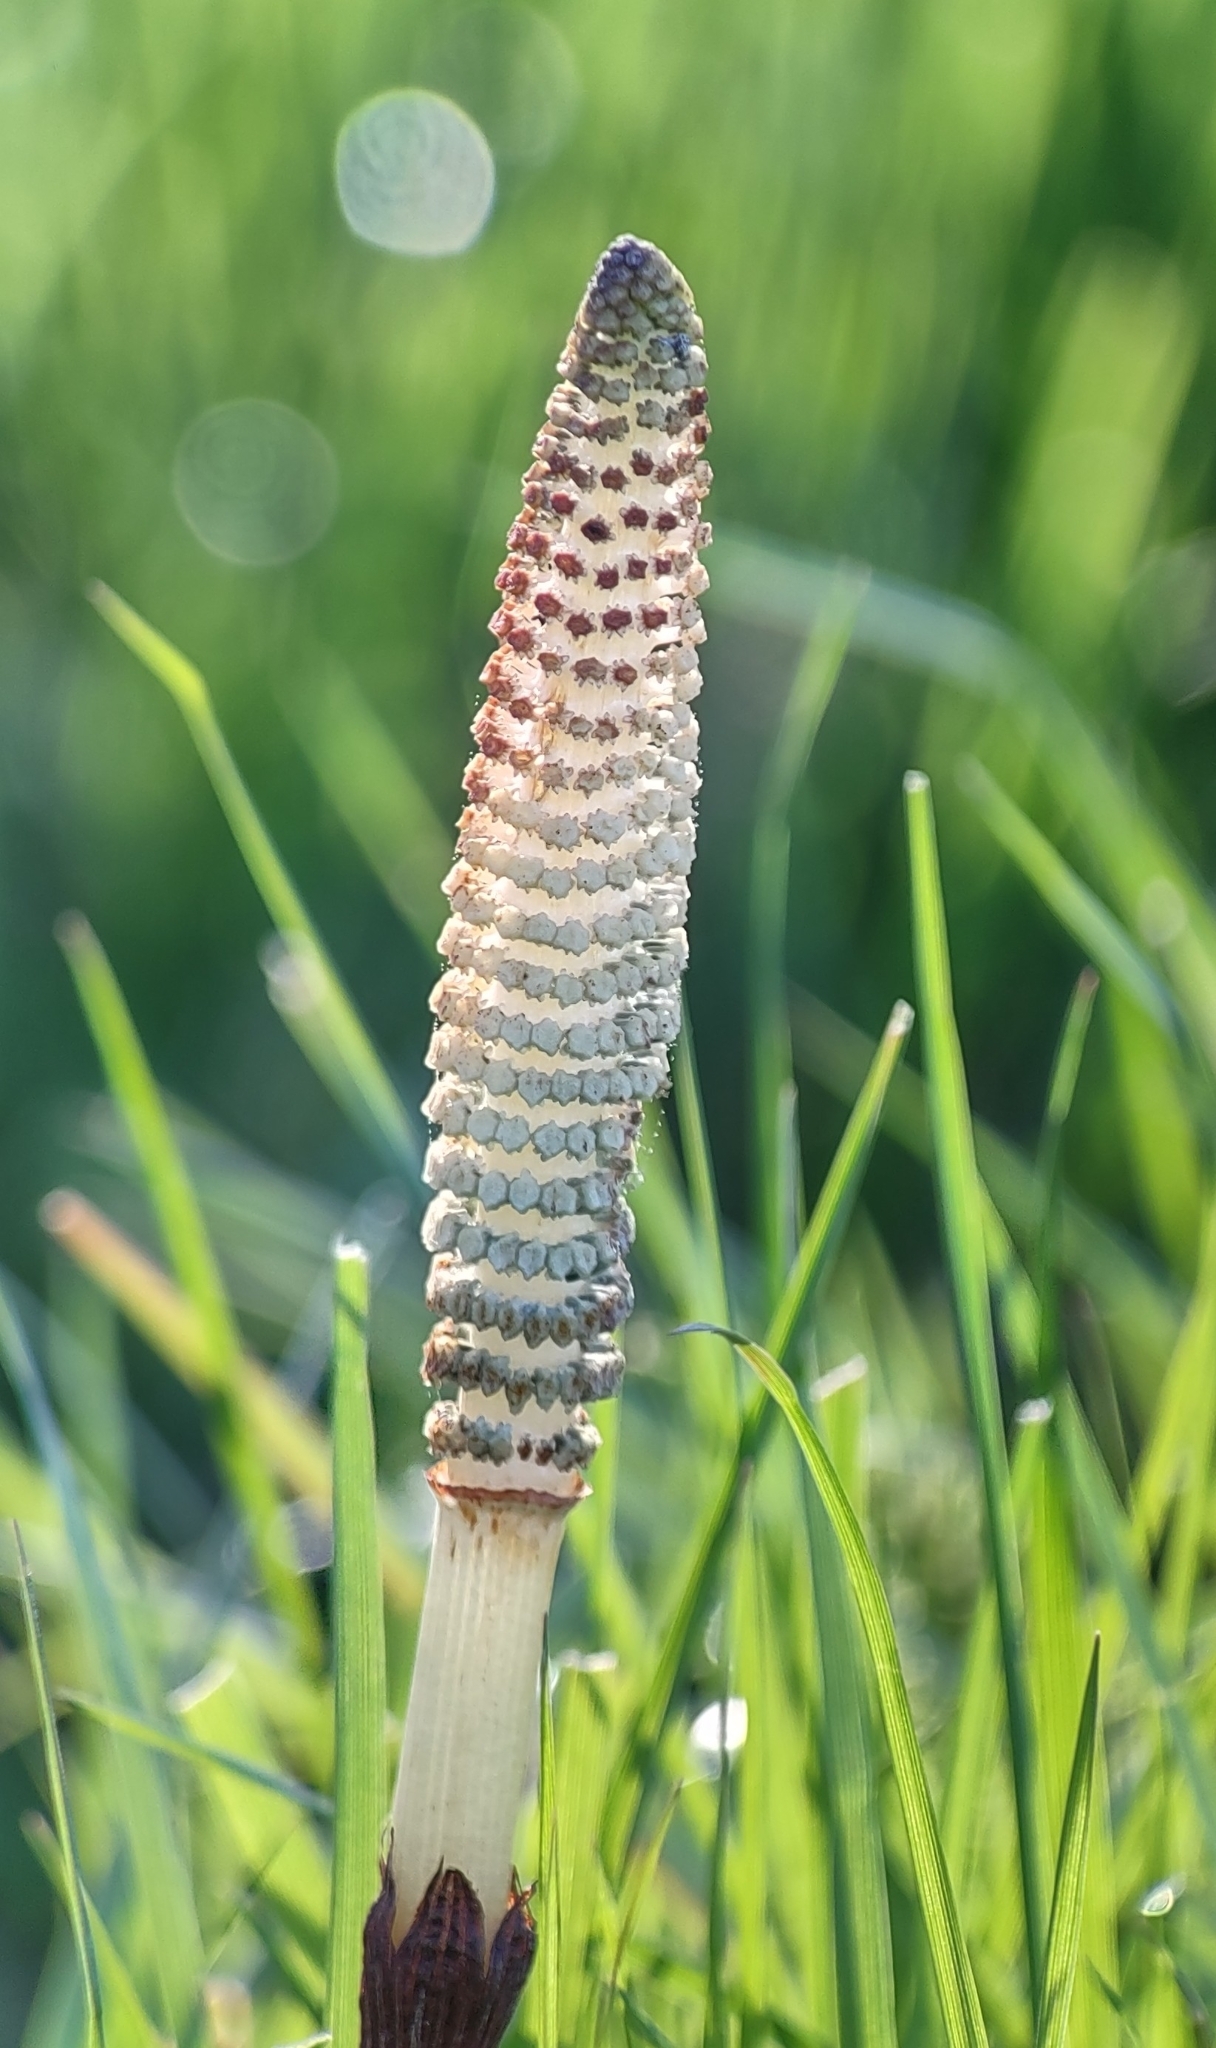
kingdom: Plantae
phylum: Tracheophyta
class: Polypodiopsida
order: Equisetales
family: Equisetaceae
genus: Equisetum
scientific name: Equisetum telmateia
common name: Great horsetail
